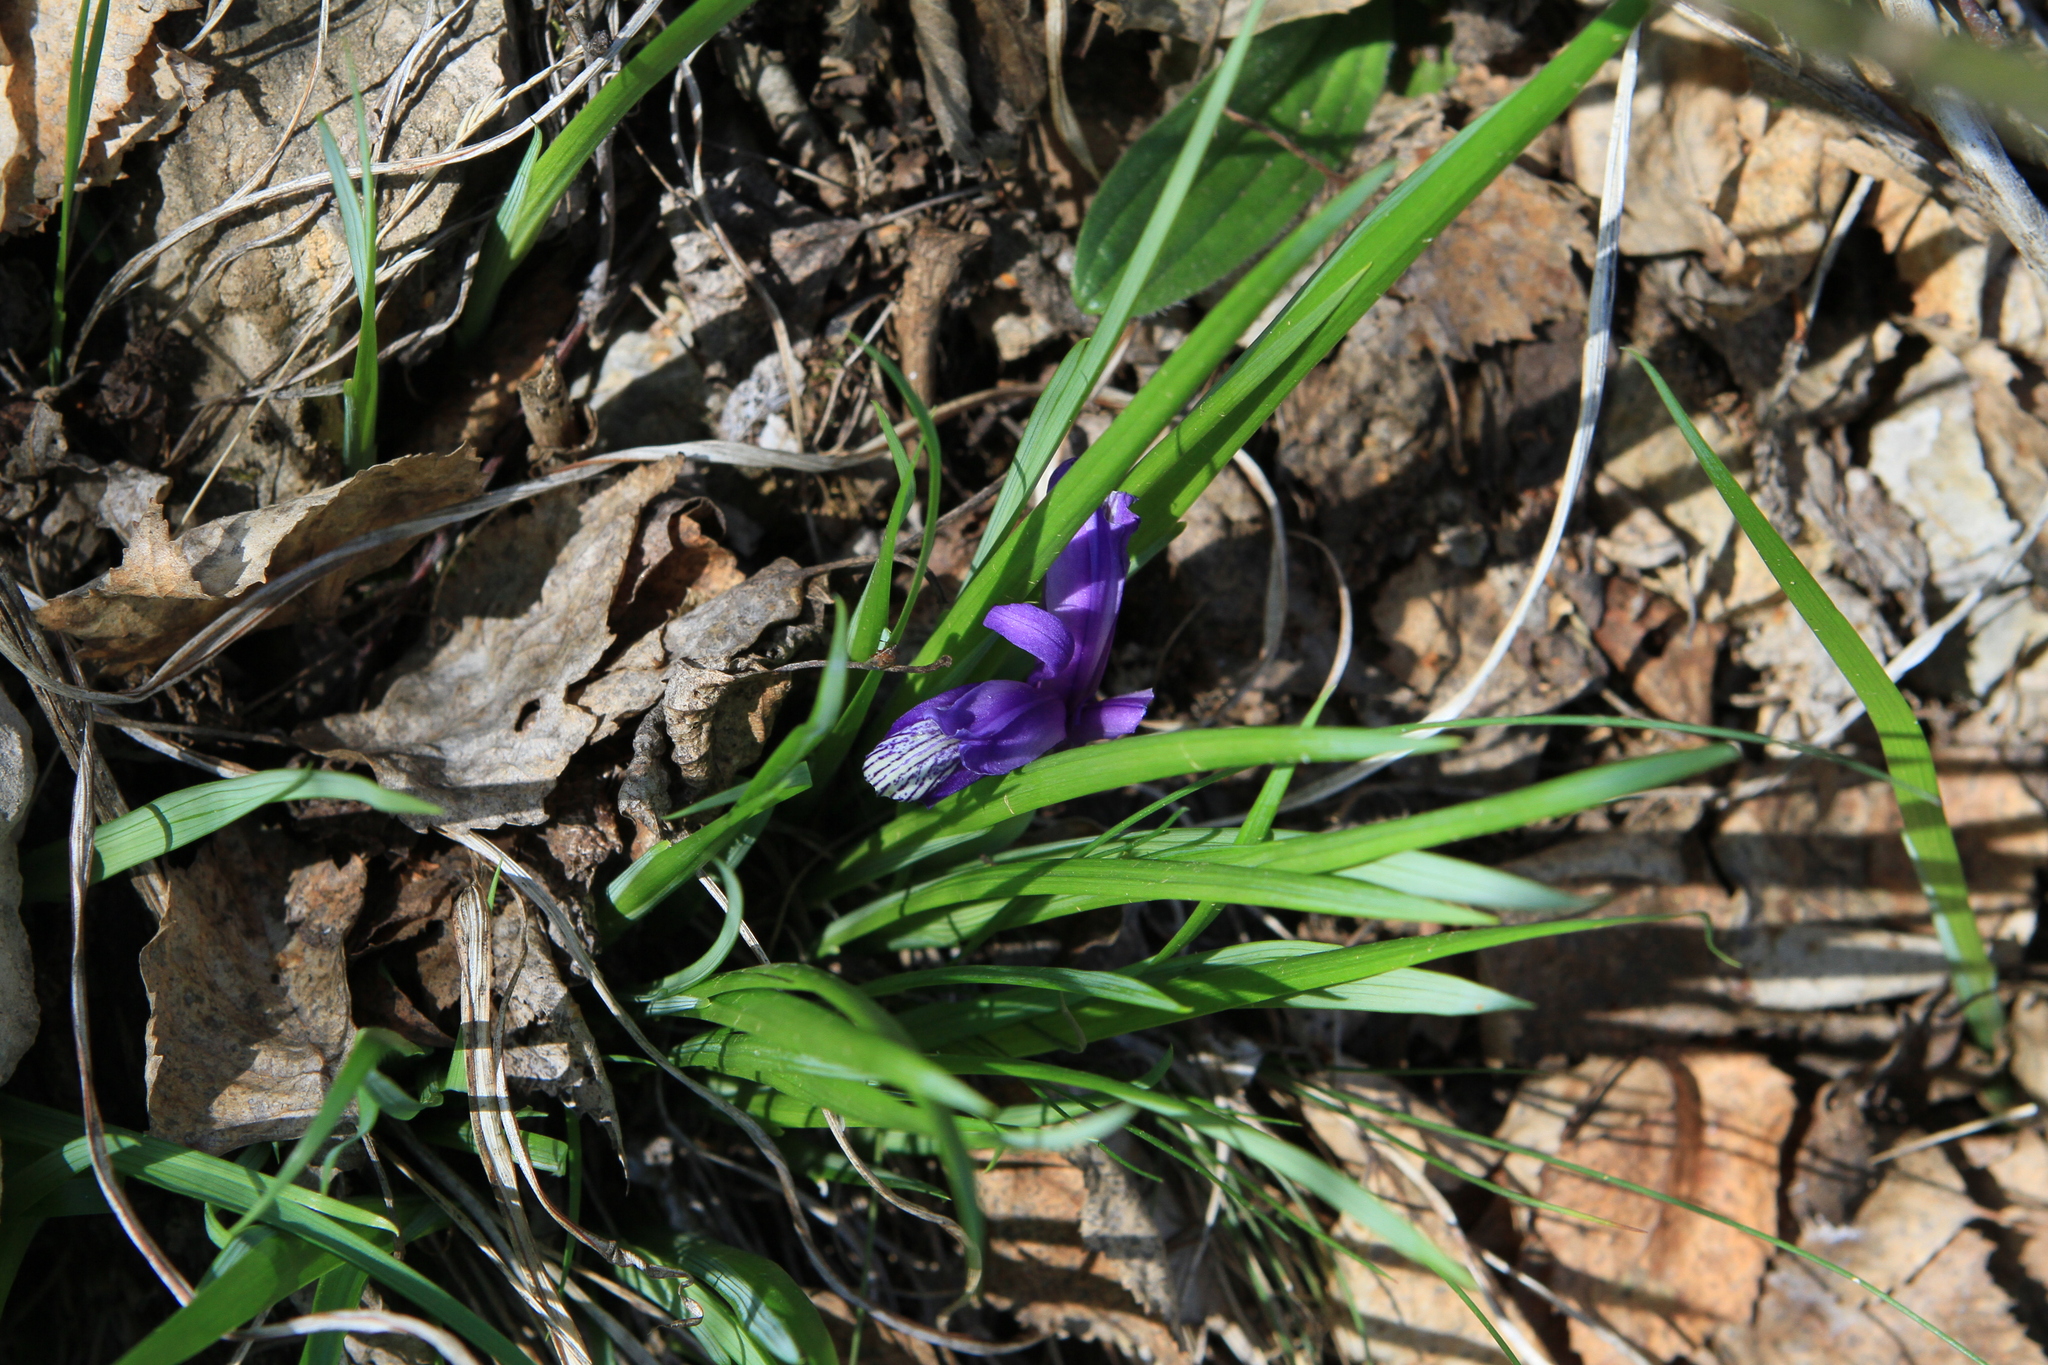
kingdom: Plantae
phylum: Tracheophyta
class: Liliopsida
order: Asparagales
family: Iridaceae
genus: Iris
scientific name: Iris ruthenica
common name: Purple-bract iris
